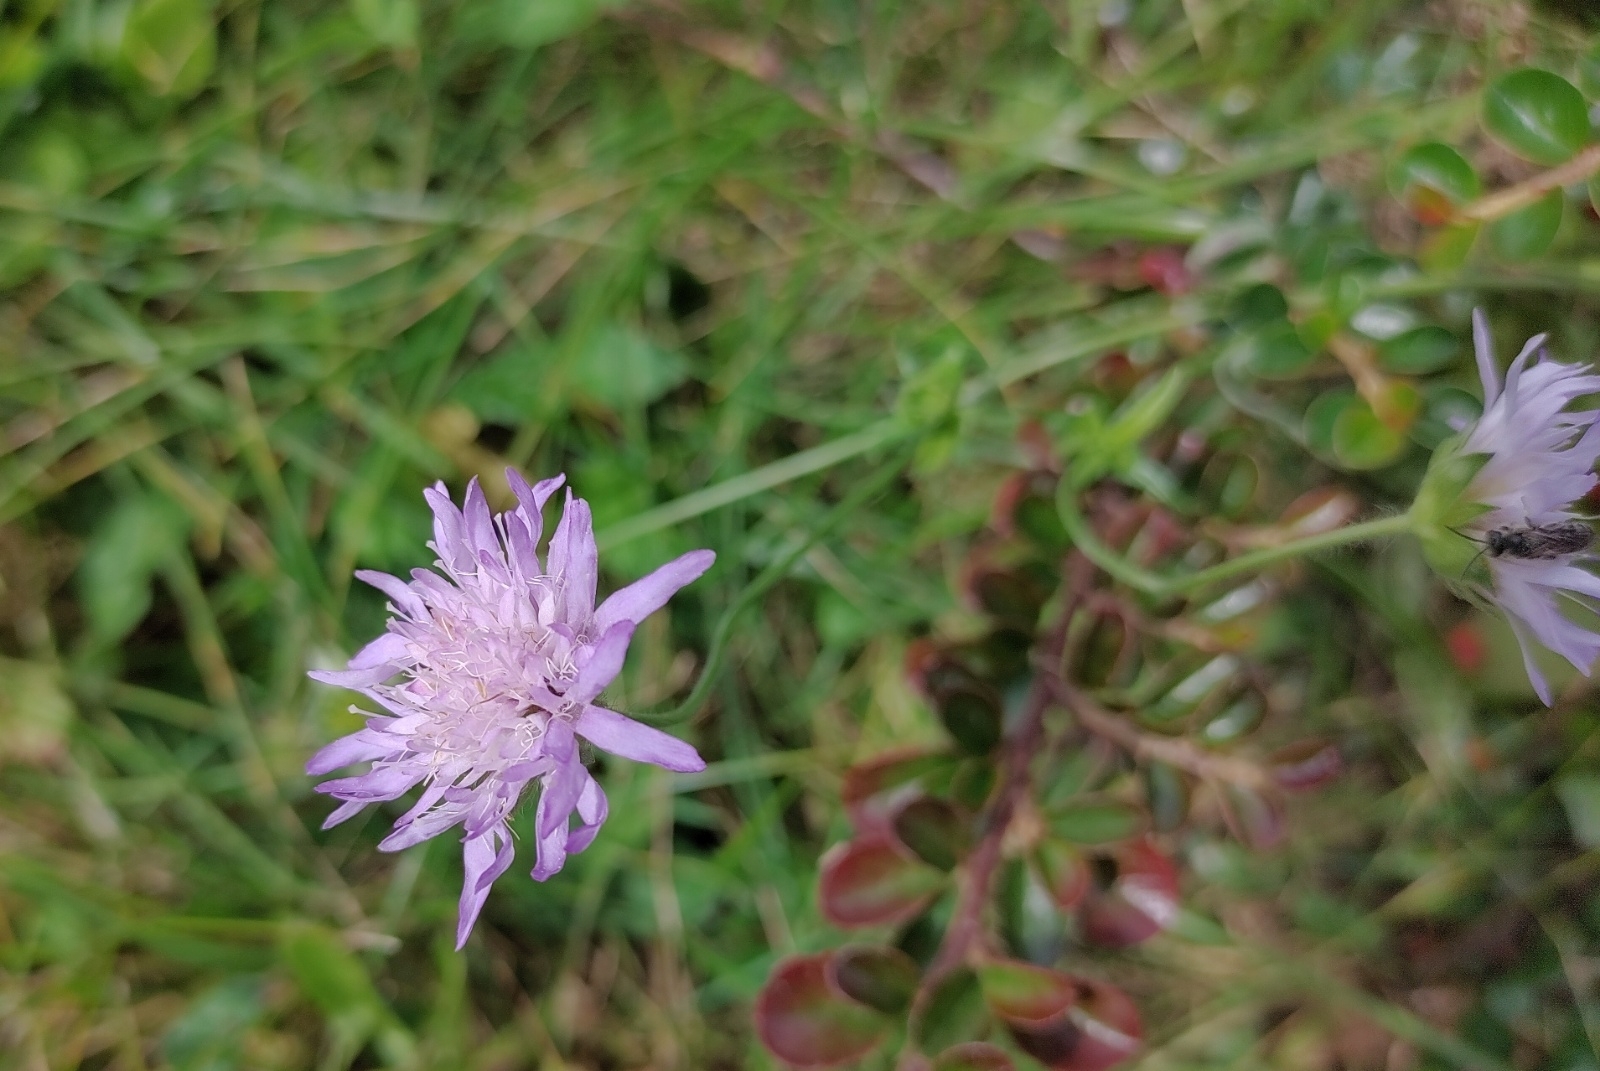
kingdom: Plantae
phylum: Tracheophyta
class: Magnoliopsida
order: Dipsacales
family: Caprifoliaceae
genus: Knautia
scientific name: Knautia arvensis
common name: Field scabiosa
